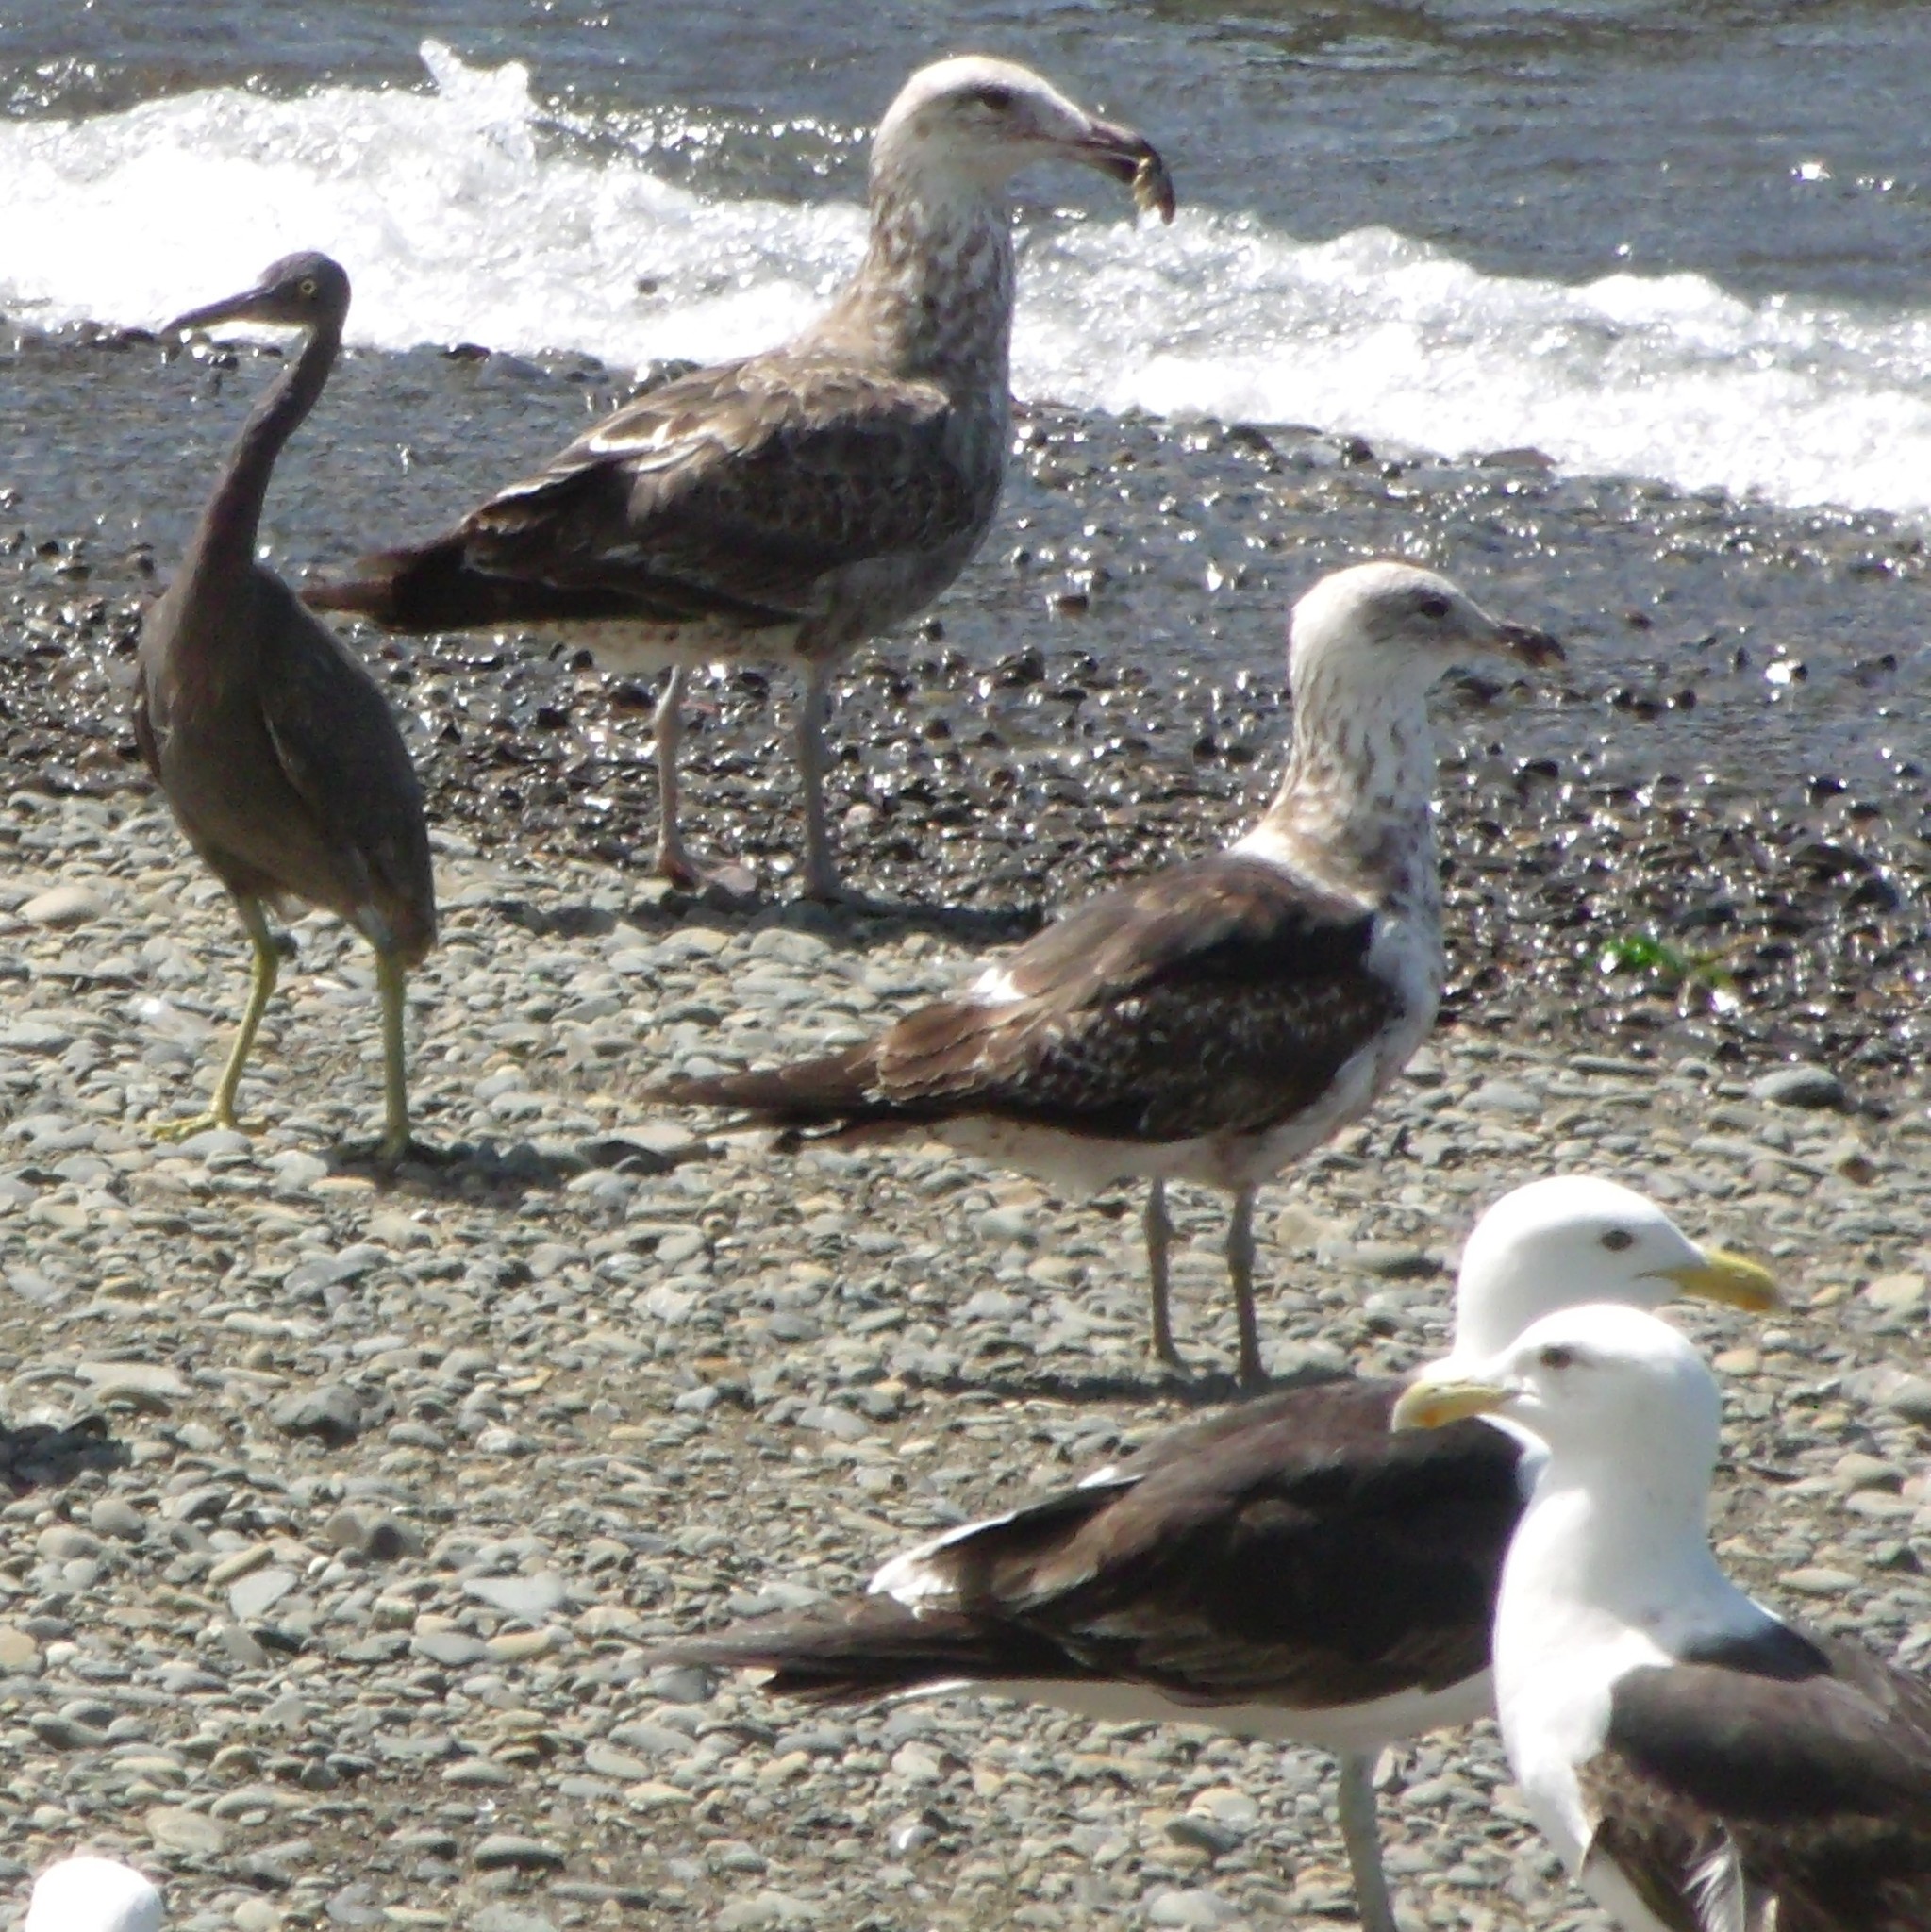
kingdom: Animalia
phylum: Chordata
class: Aves
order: Charadriiformes
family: Laridae
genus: Larus
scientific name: Larus dominicanus
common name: Kelp gull
